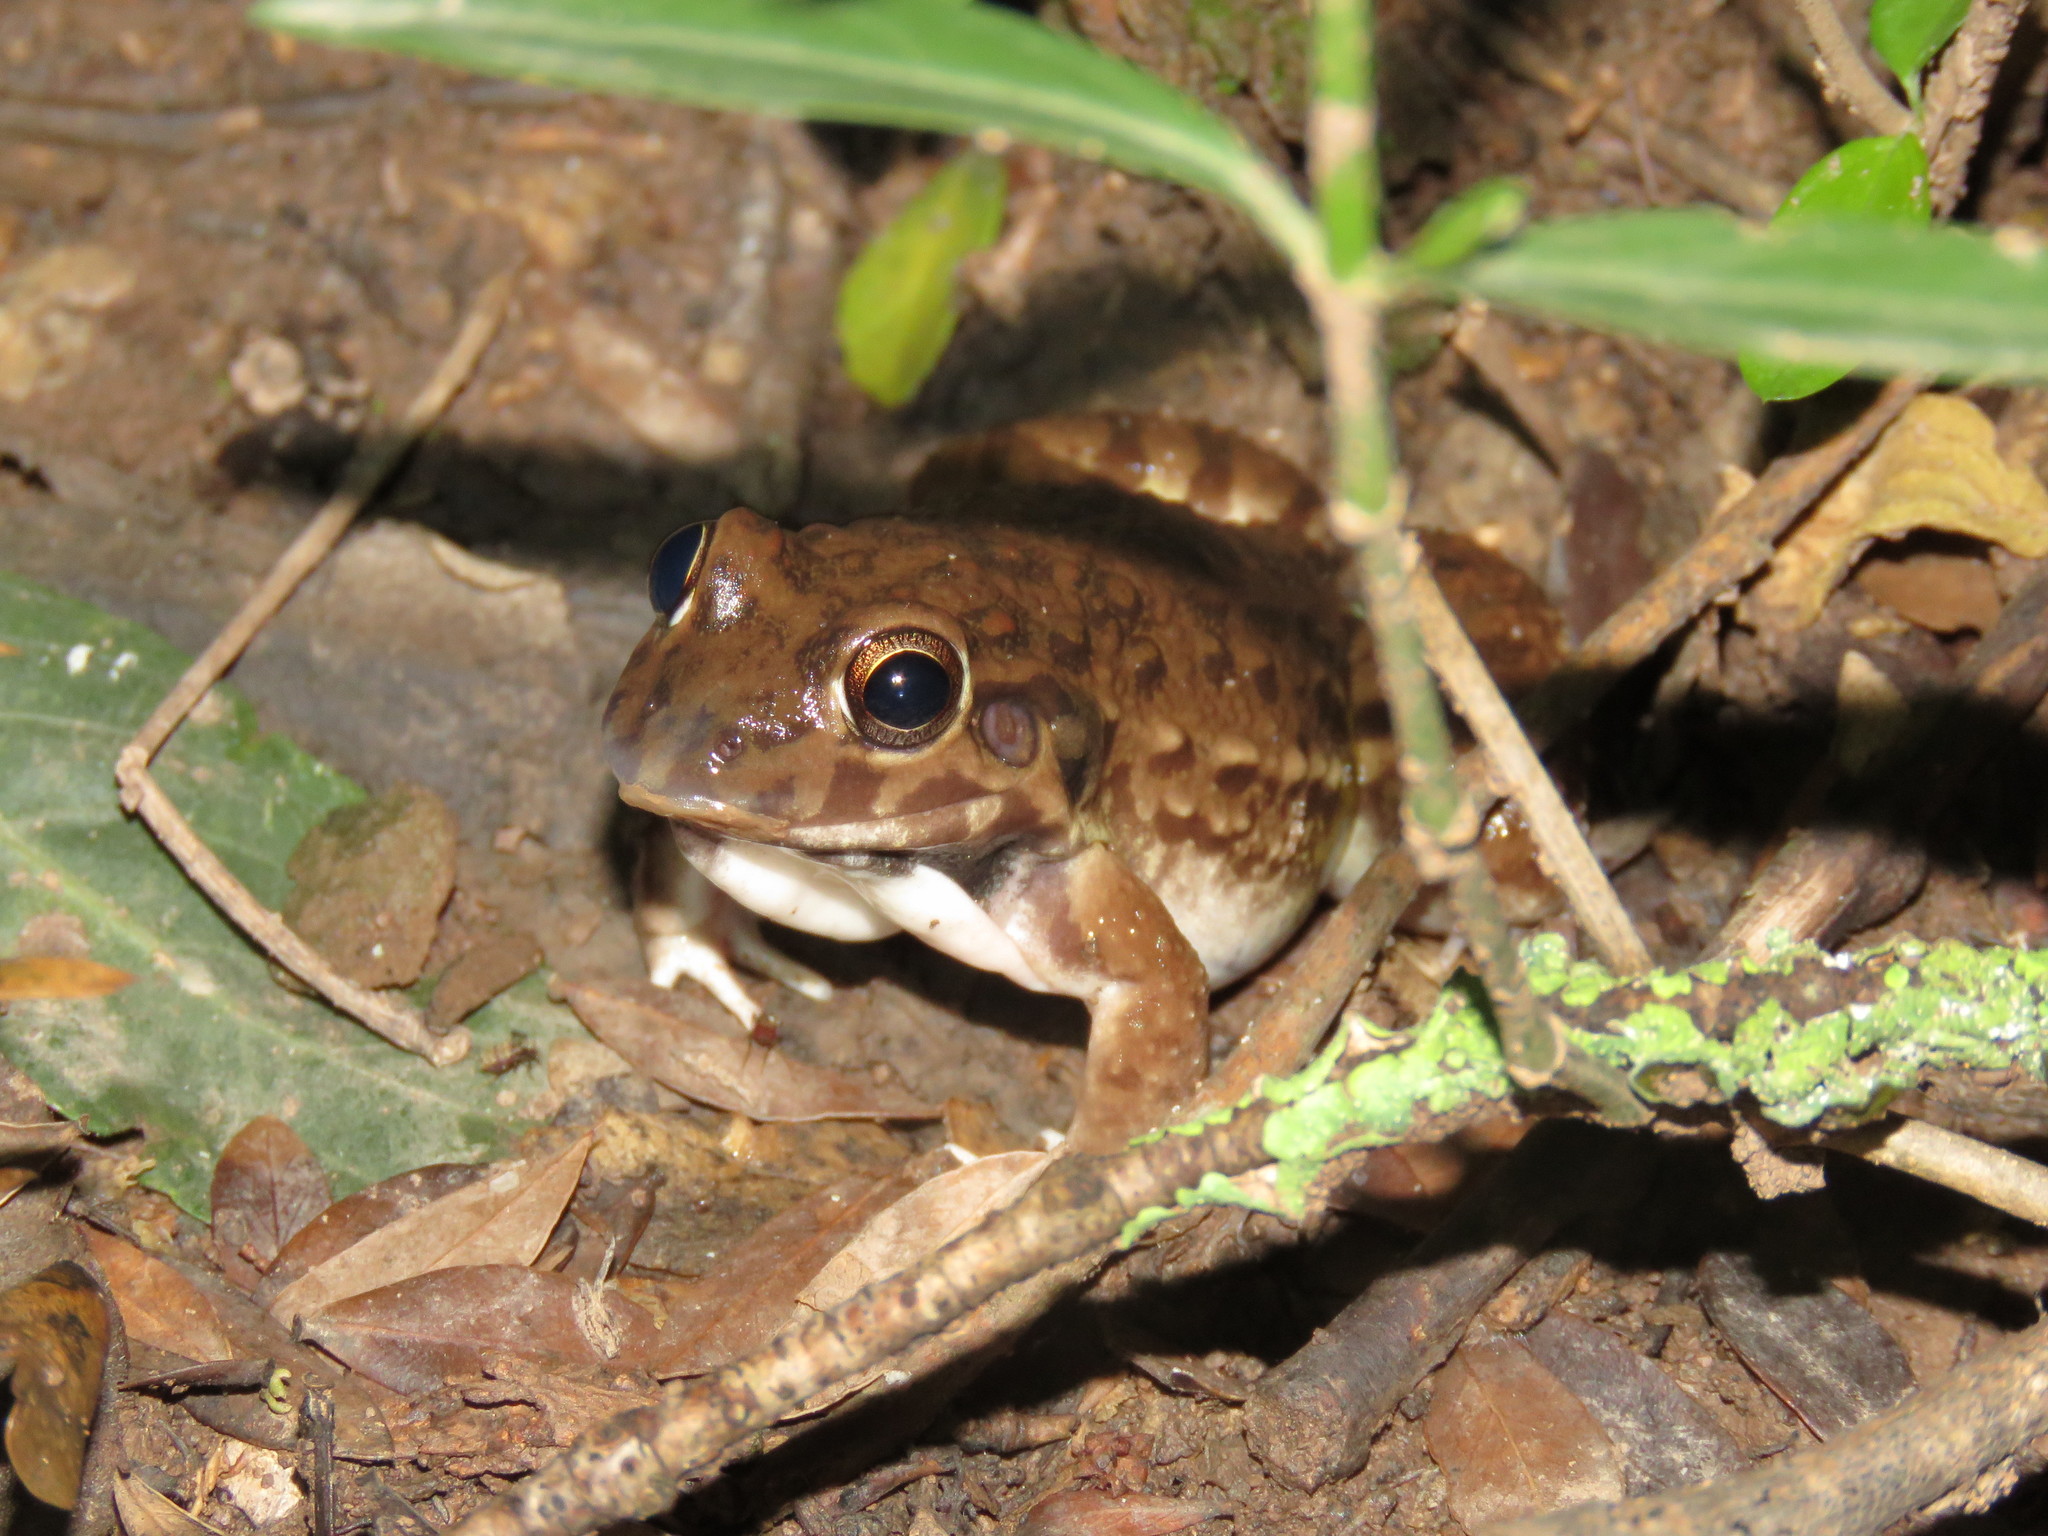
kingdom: Animalia
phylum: Chordata
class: Amphibia
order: Anura
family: Leptodactylidae
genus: Leptodactylus
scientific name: Leptodactylus bufonius
